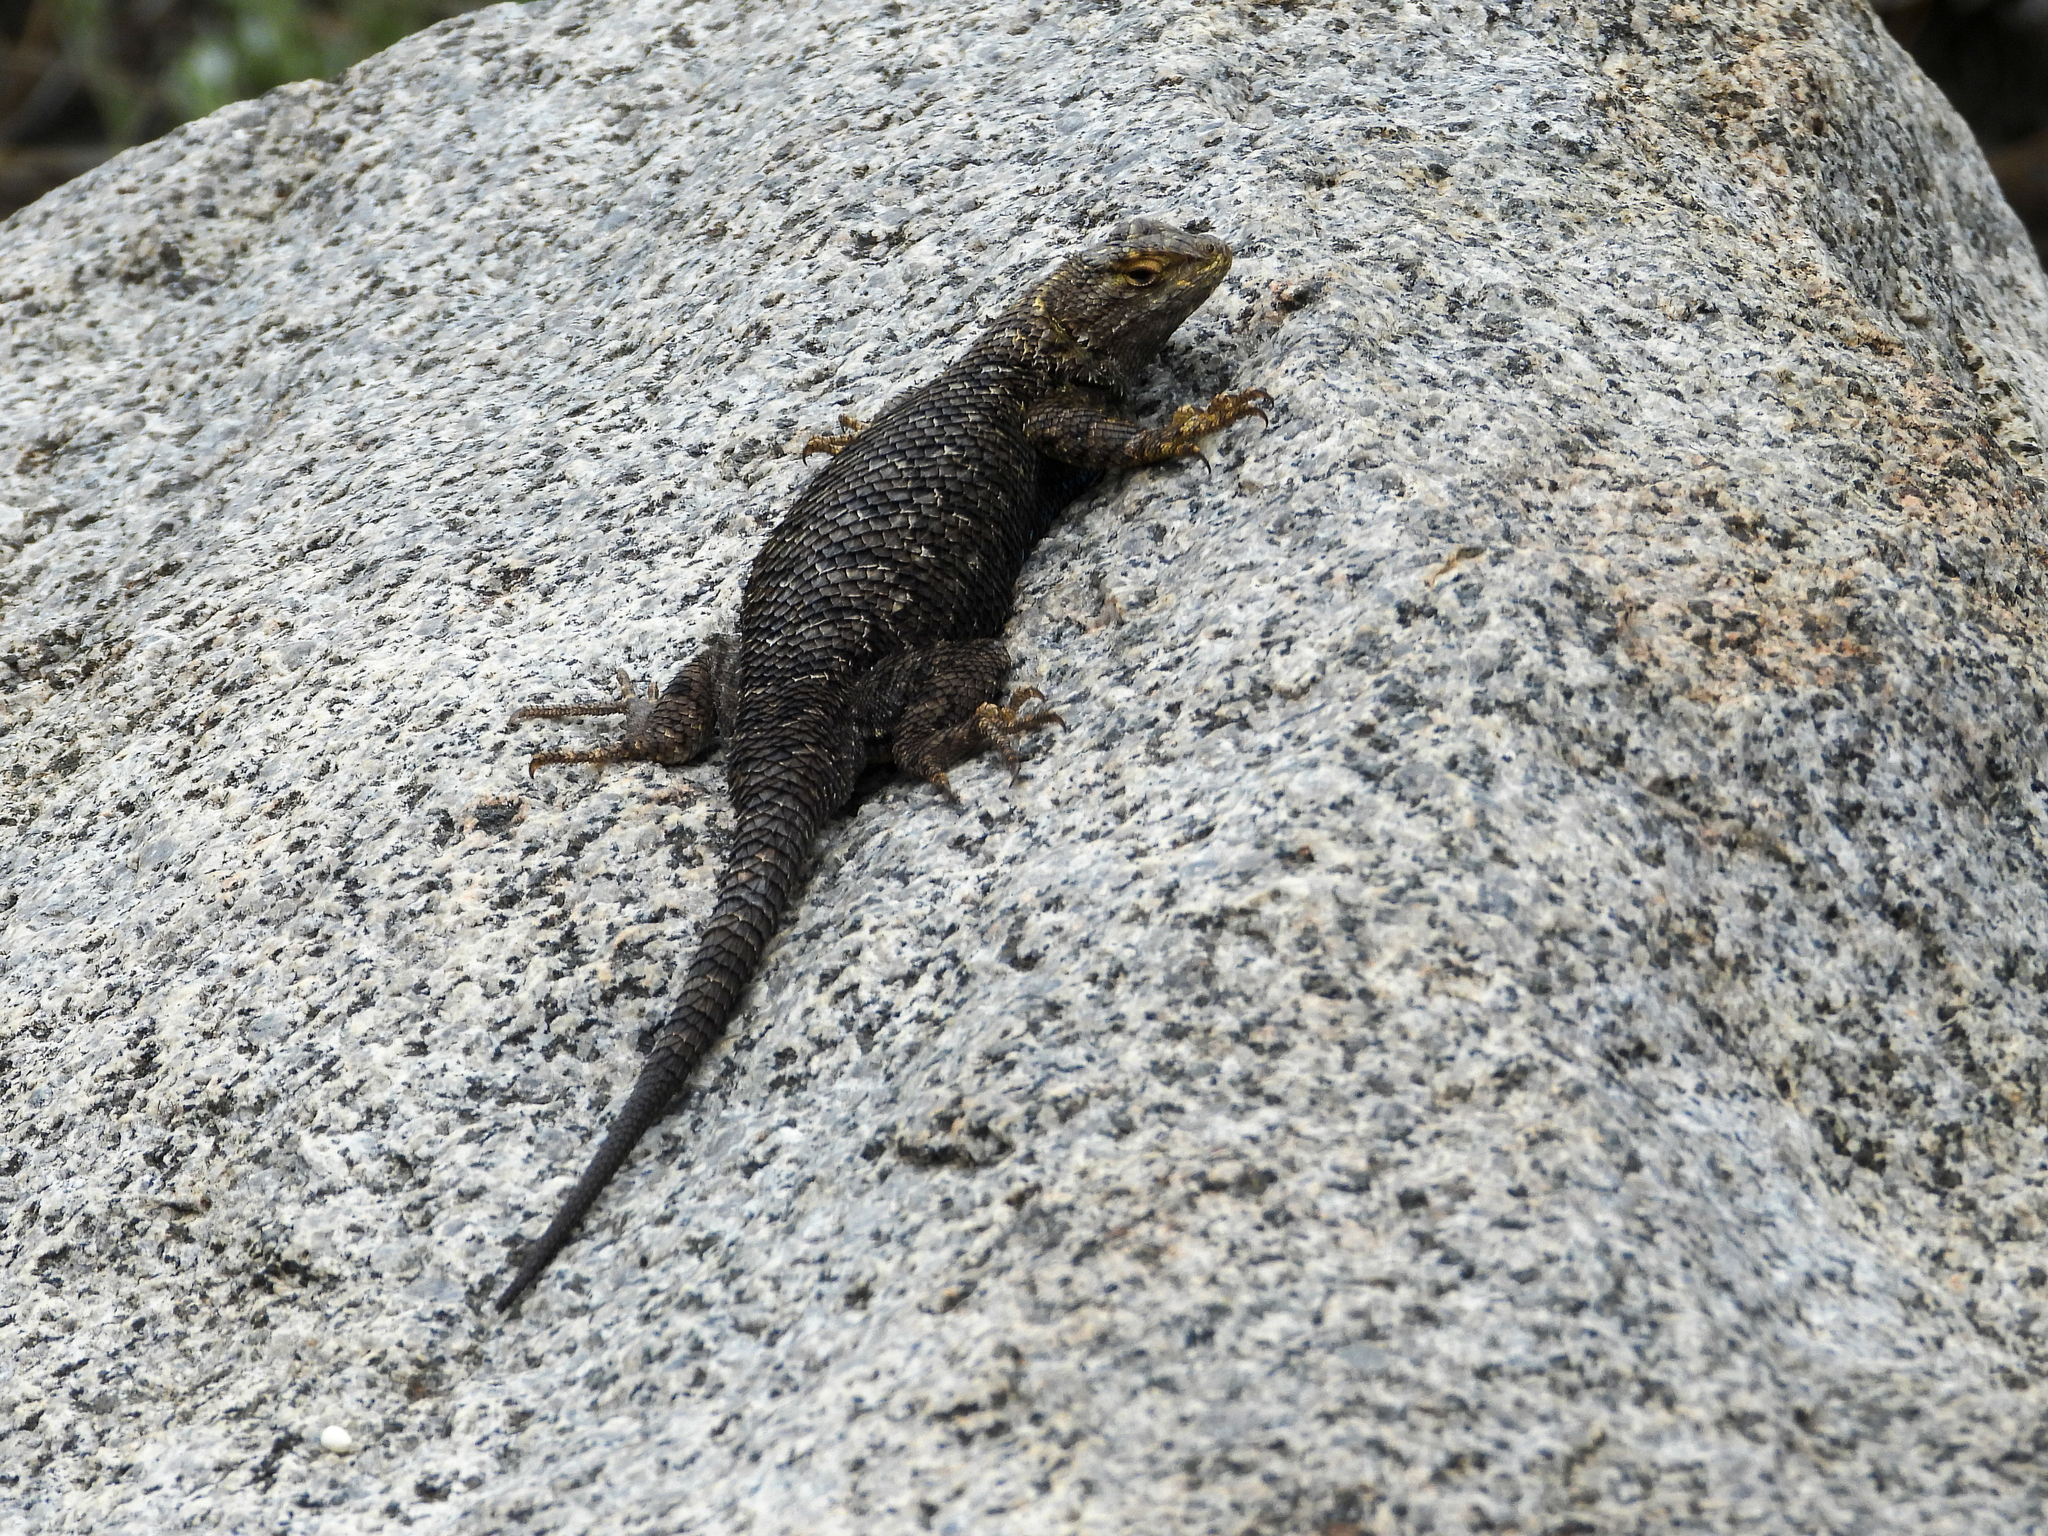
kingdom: Animalia
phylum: Chordata
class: Squamata
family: Phrynosomatidae
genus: Sceloporus
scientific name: Sceloporus occidentalis
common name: Western fence lizard
